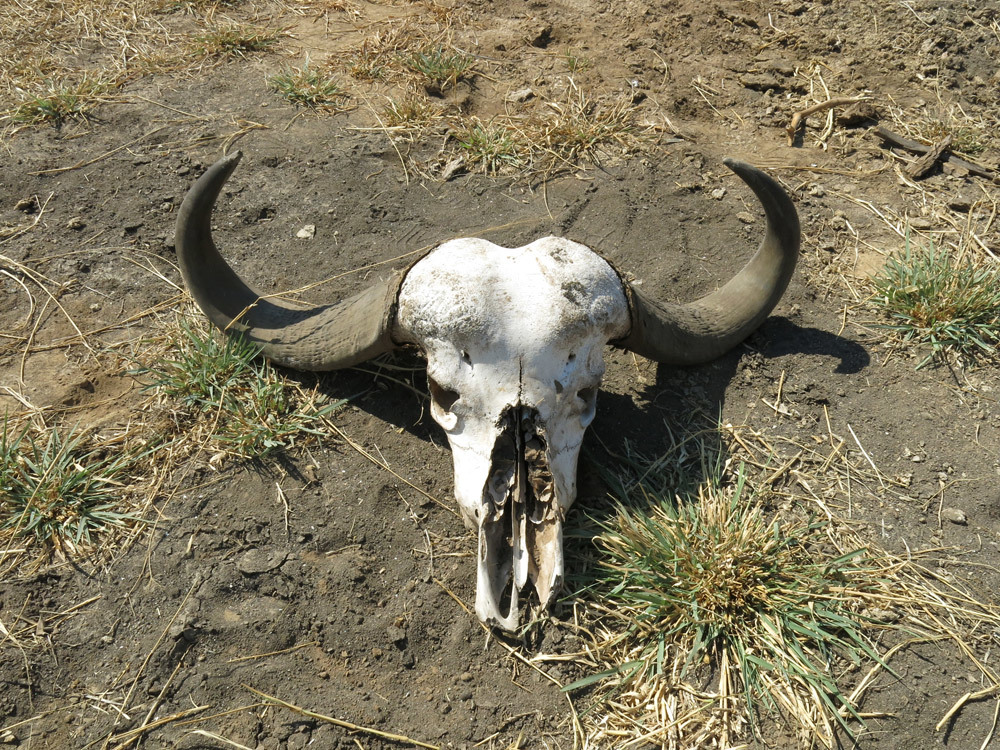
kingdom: Animalia
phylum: Chordata
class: Mammalia
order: Artiodactyla
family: Bovidae
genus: Syncerus
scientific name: Syncerus caffer
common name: African buffalo
